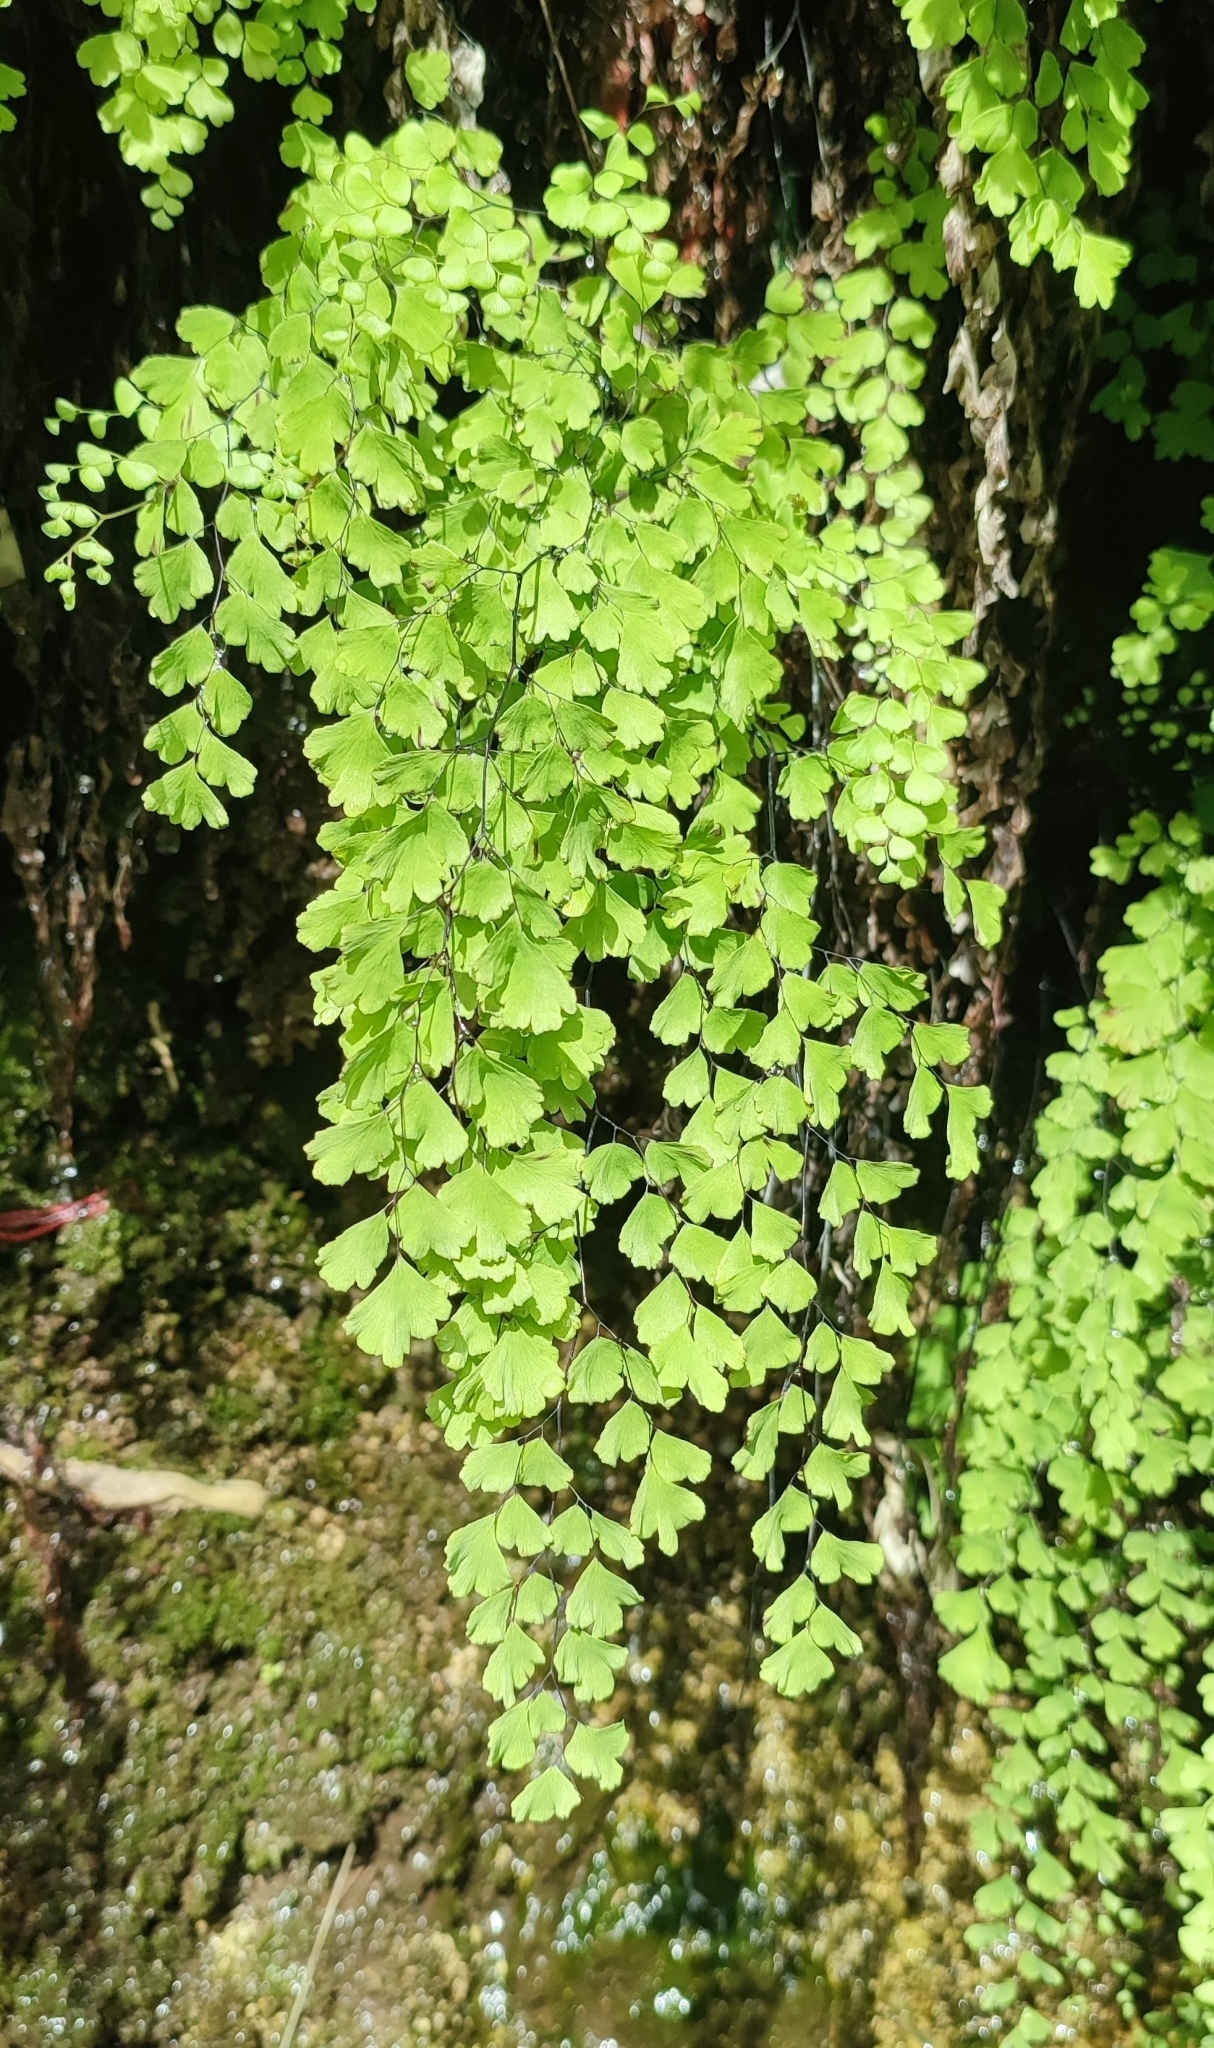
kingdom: Plantae
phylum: Tracheophyta
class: Polypodiopsida
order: Polypodiales
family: Pteridaceae
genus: Adiantum
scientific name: Adiantum capillus-veneris
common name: Maidenhair fern
